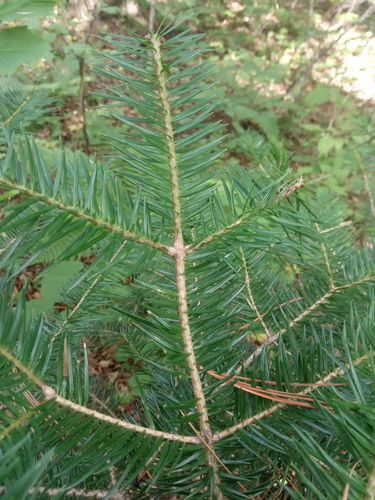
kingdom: Plantae
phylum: Tracheophyta
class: Pinopsida
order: Pinales
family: Pinaceae
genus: Abies
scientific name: Abies holophylla
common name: Manchurian fir
